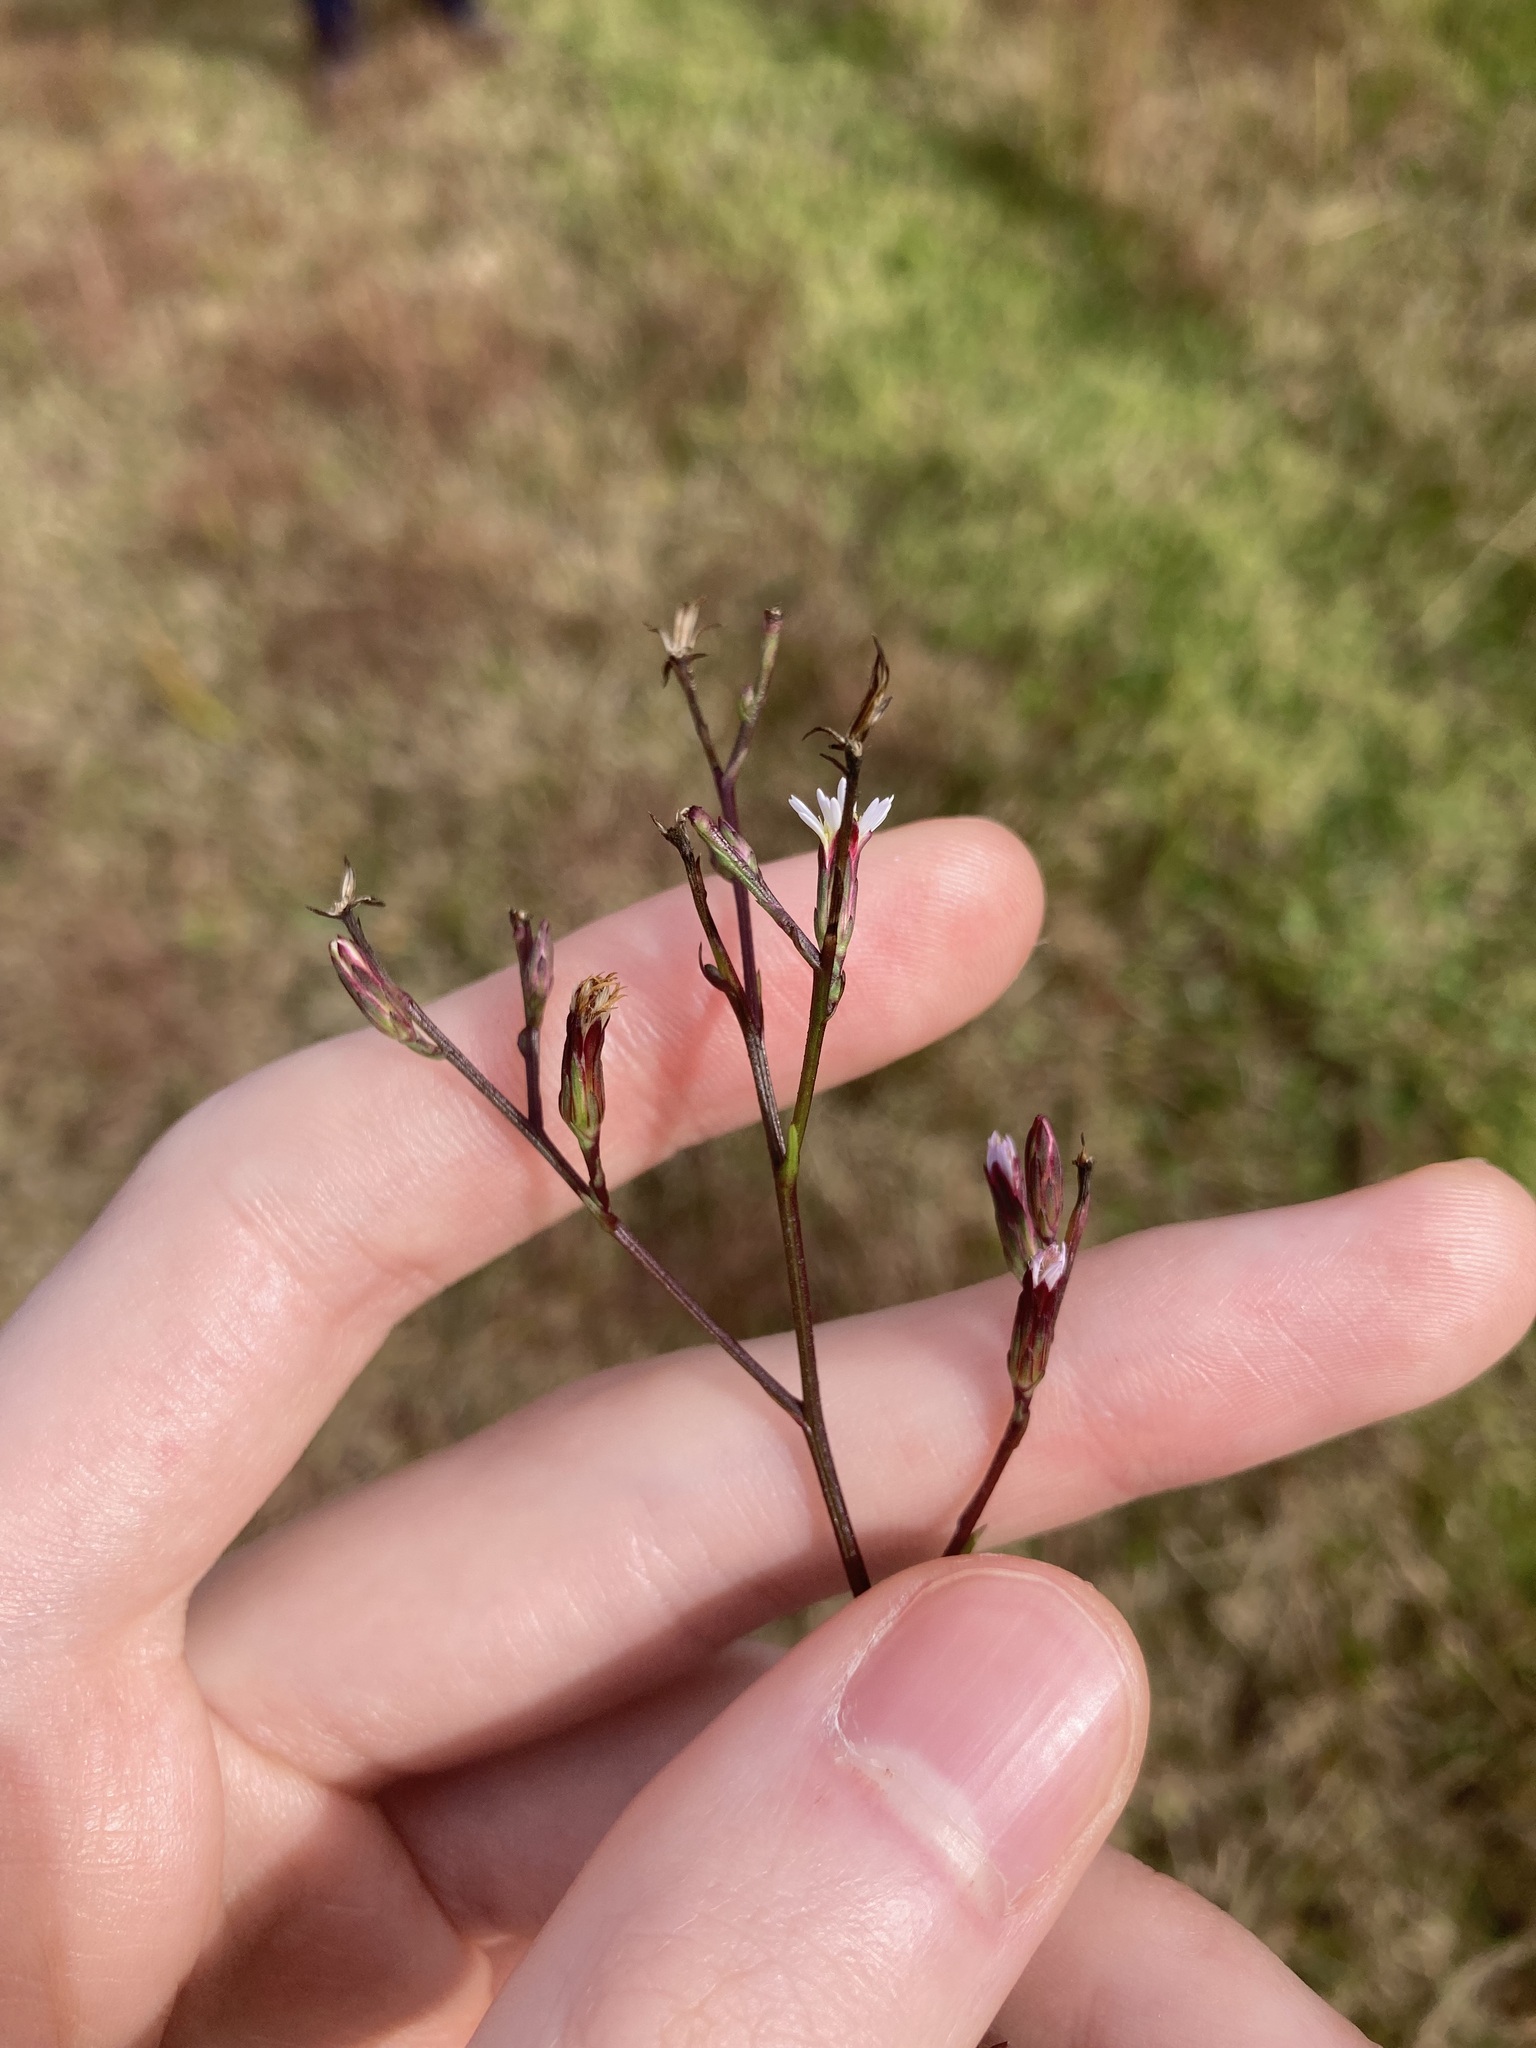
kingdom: Plantae
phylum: Tracheophyta
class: Magnoliopsida
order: Asterales
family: Asteraceae
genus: Symphyotrichum
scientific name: Symphyotrichum subulatum
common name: Annual saltmarsh aster
